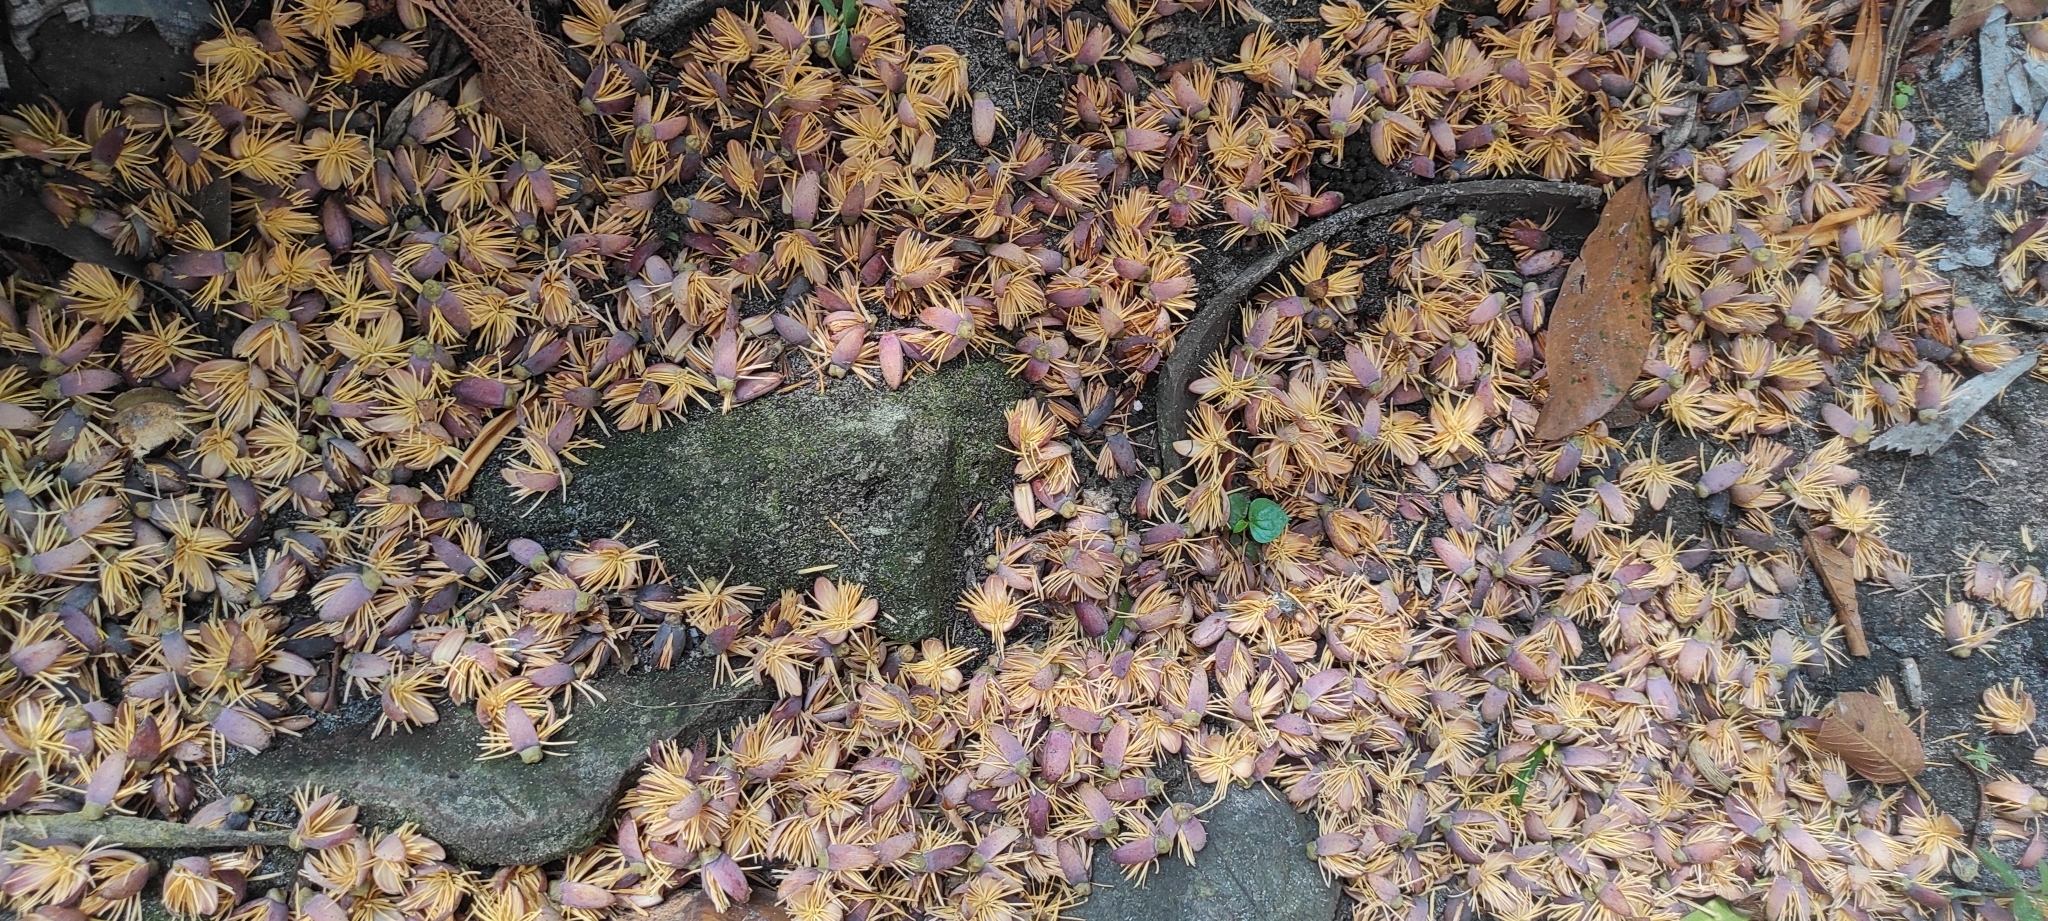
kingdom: Plantae
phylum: Tracheophyta
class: Liliopsida
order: Arecales
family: Arecaceae
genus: Caryota
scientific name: Caryota urens
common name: Jaggery palm
